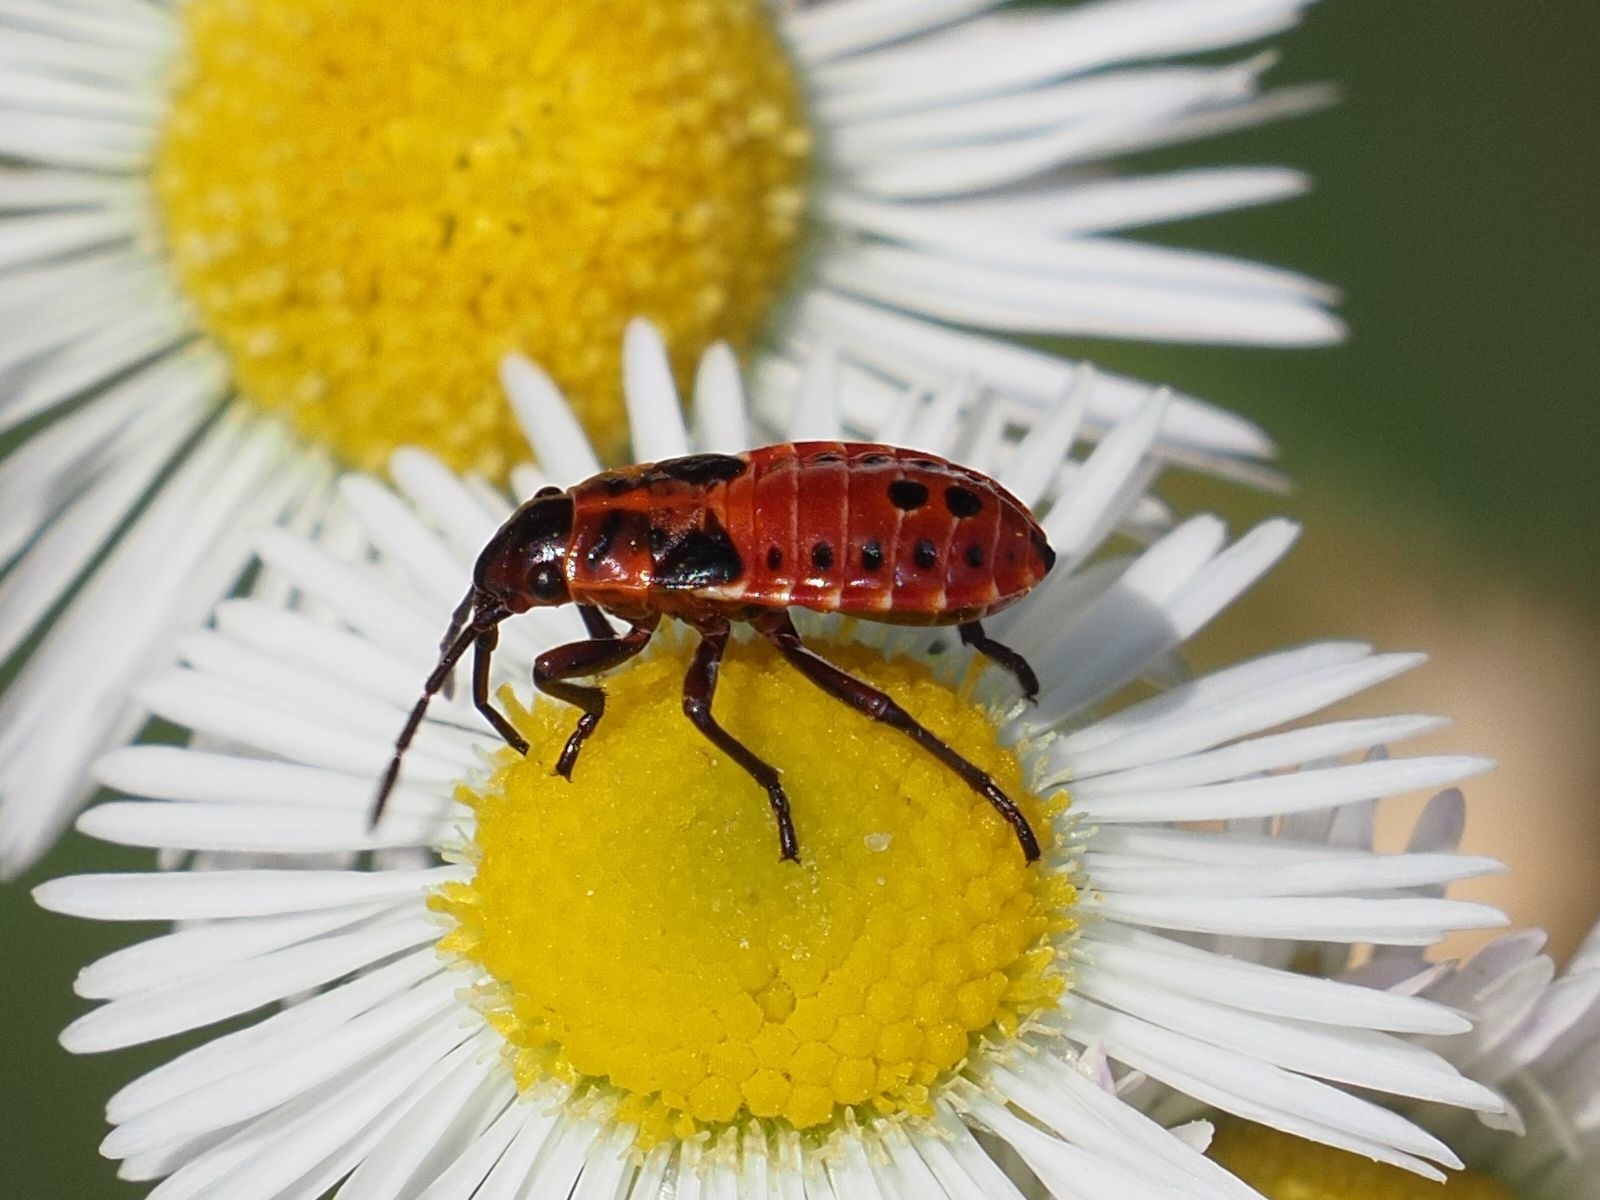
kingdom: Animalia
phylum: Arthropoda
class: Insecta
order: Hemiptera
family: Lygaeidae
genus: Spilostethus
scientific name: Spilostethus saxatilis
